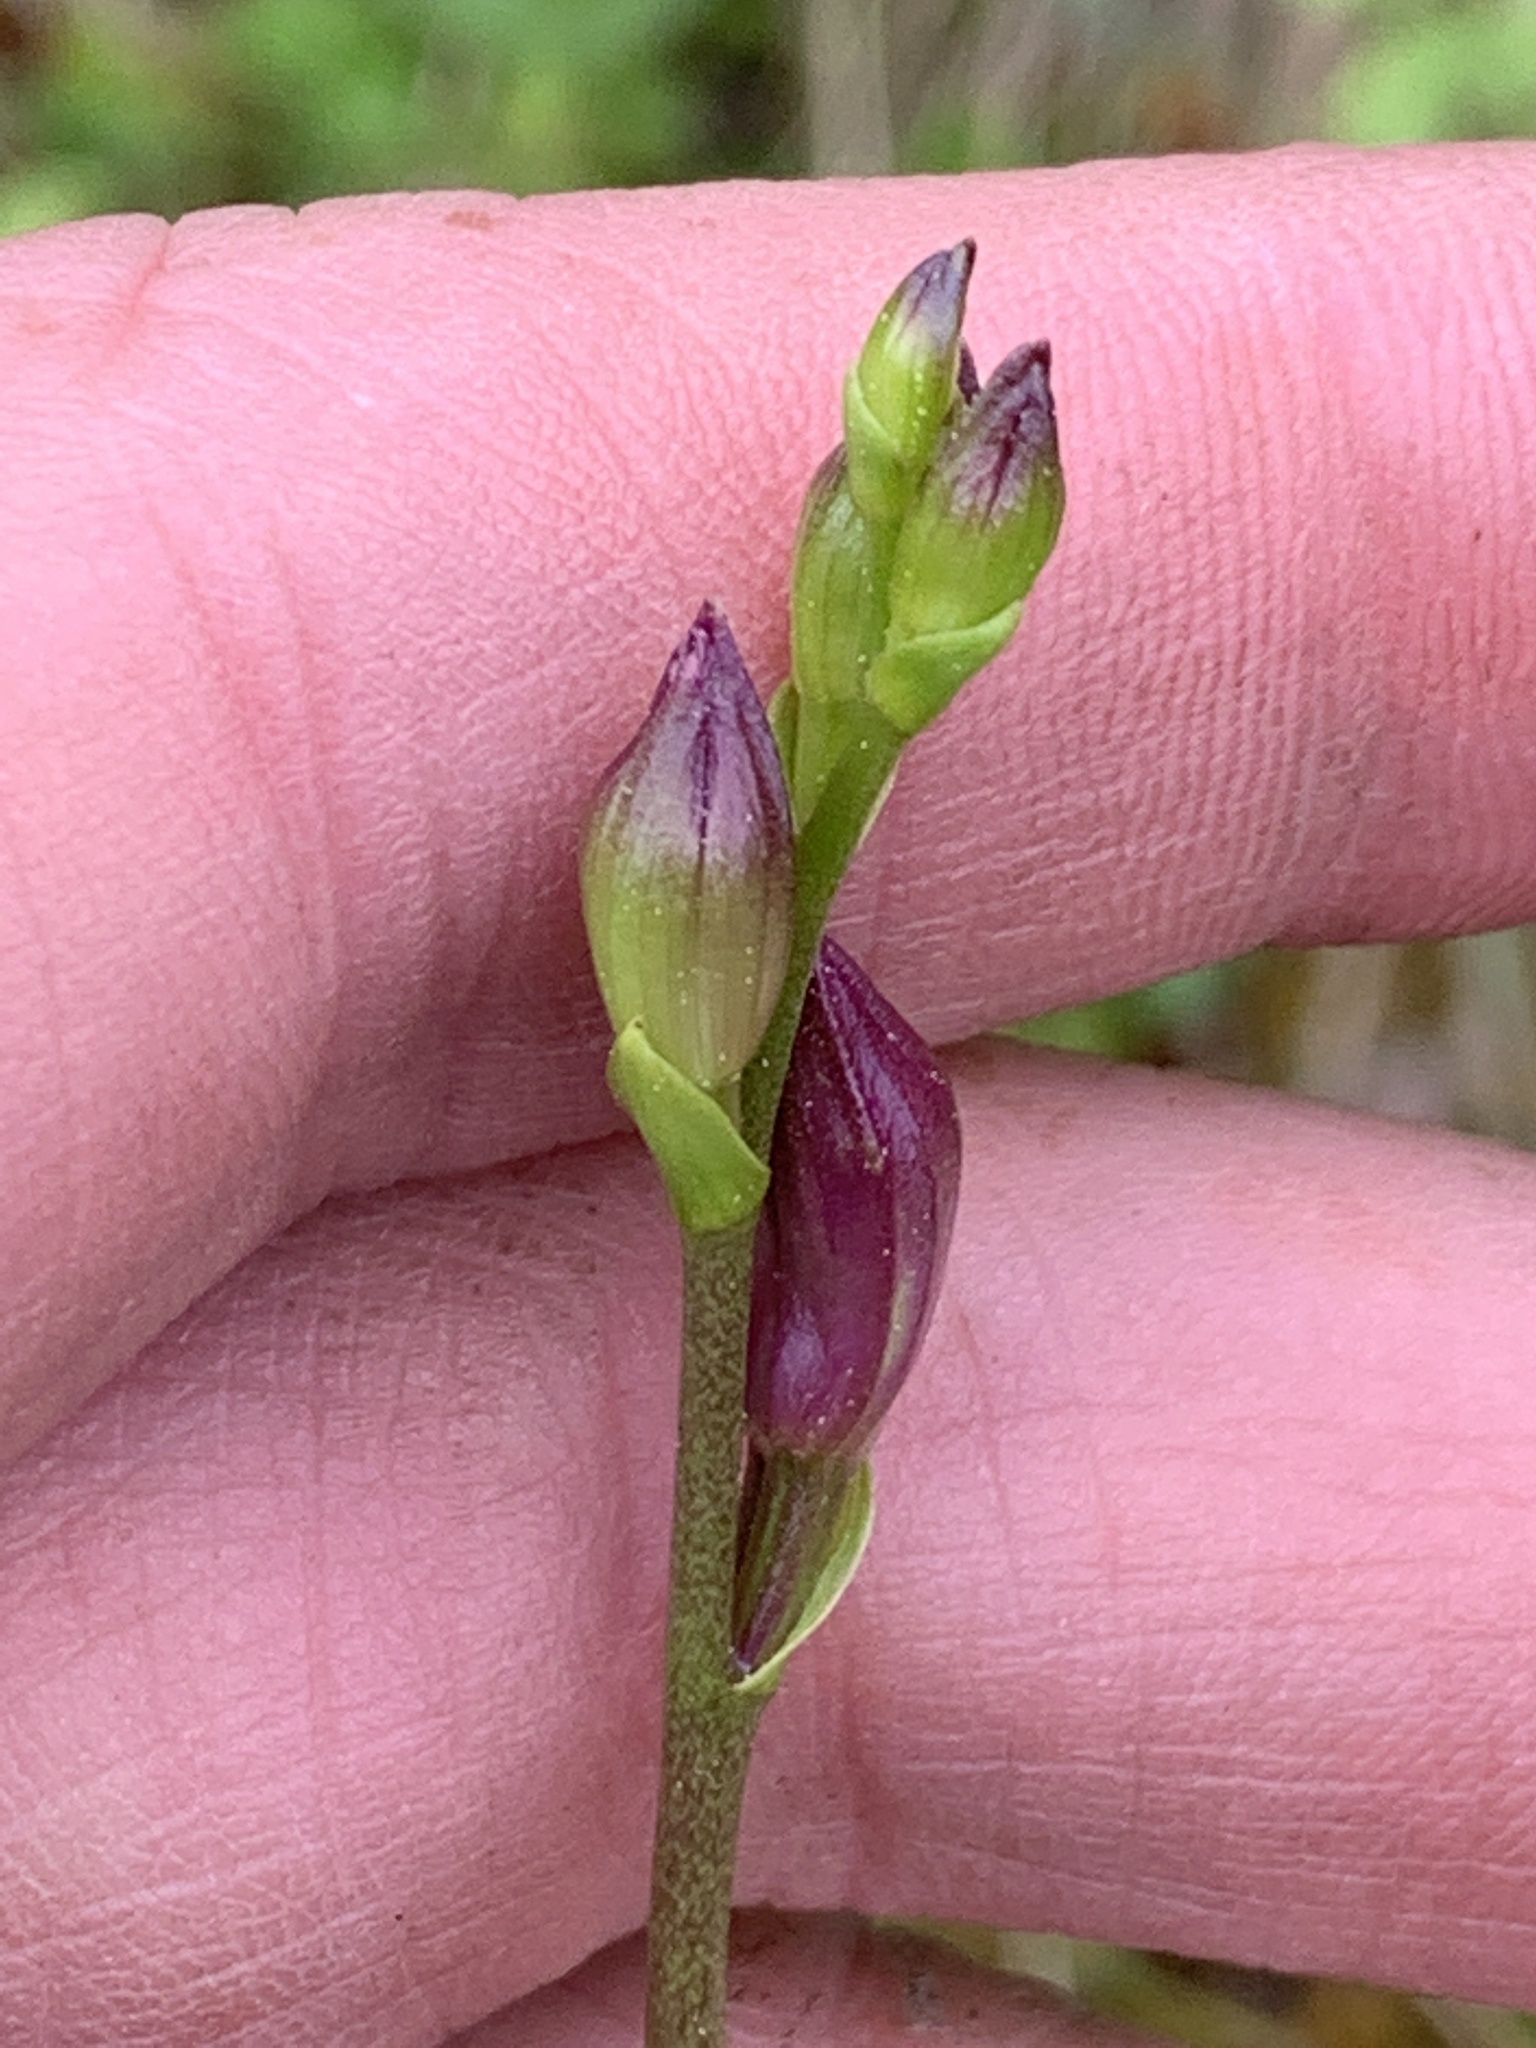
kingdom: Plantae
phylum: Tracheophyta
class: Liliopsida
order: Asparagales
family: Orchidaceae
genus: Calopogon
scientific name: Calopogon tuberosus
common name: Grass-pink
